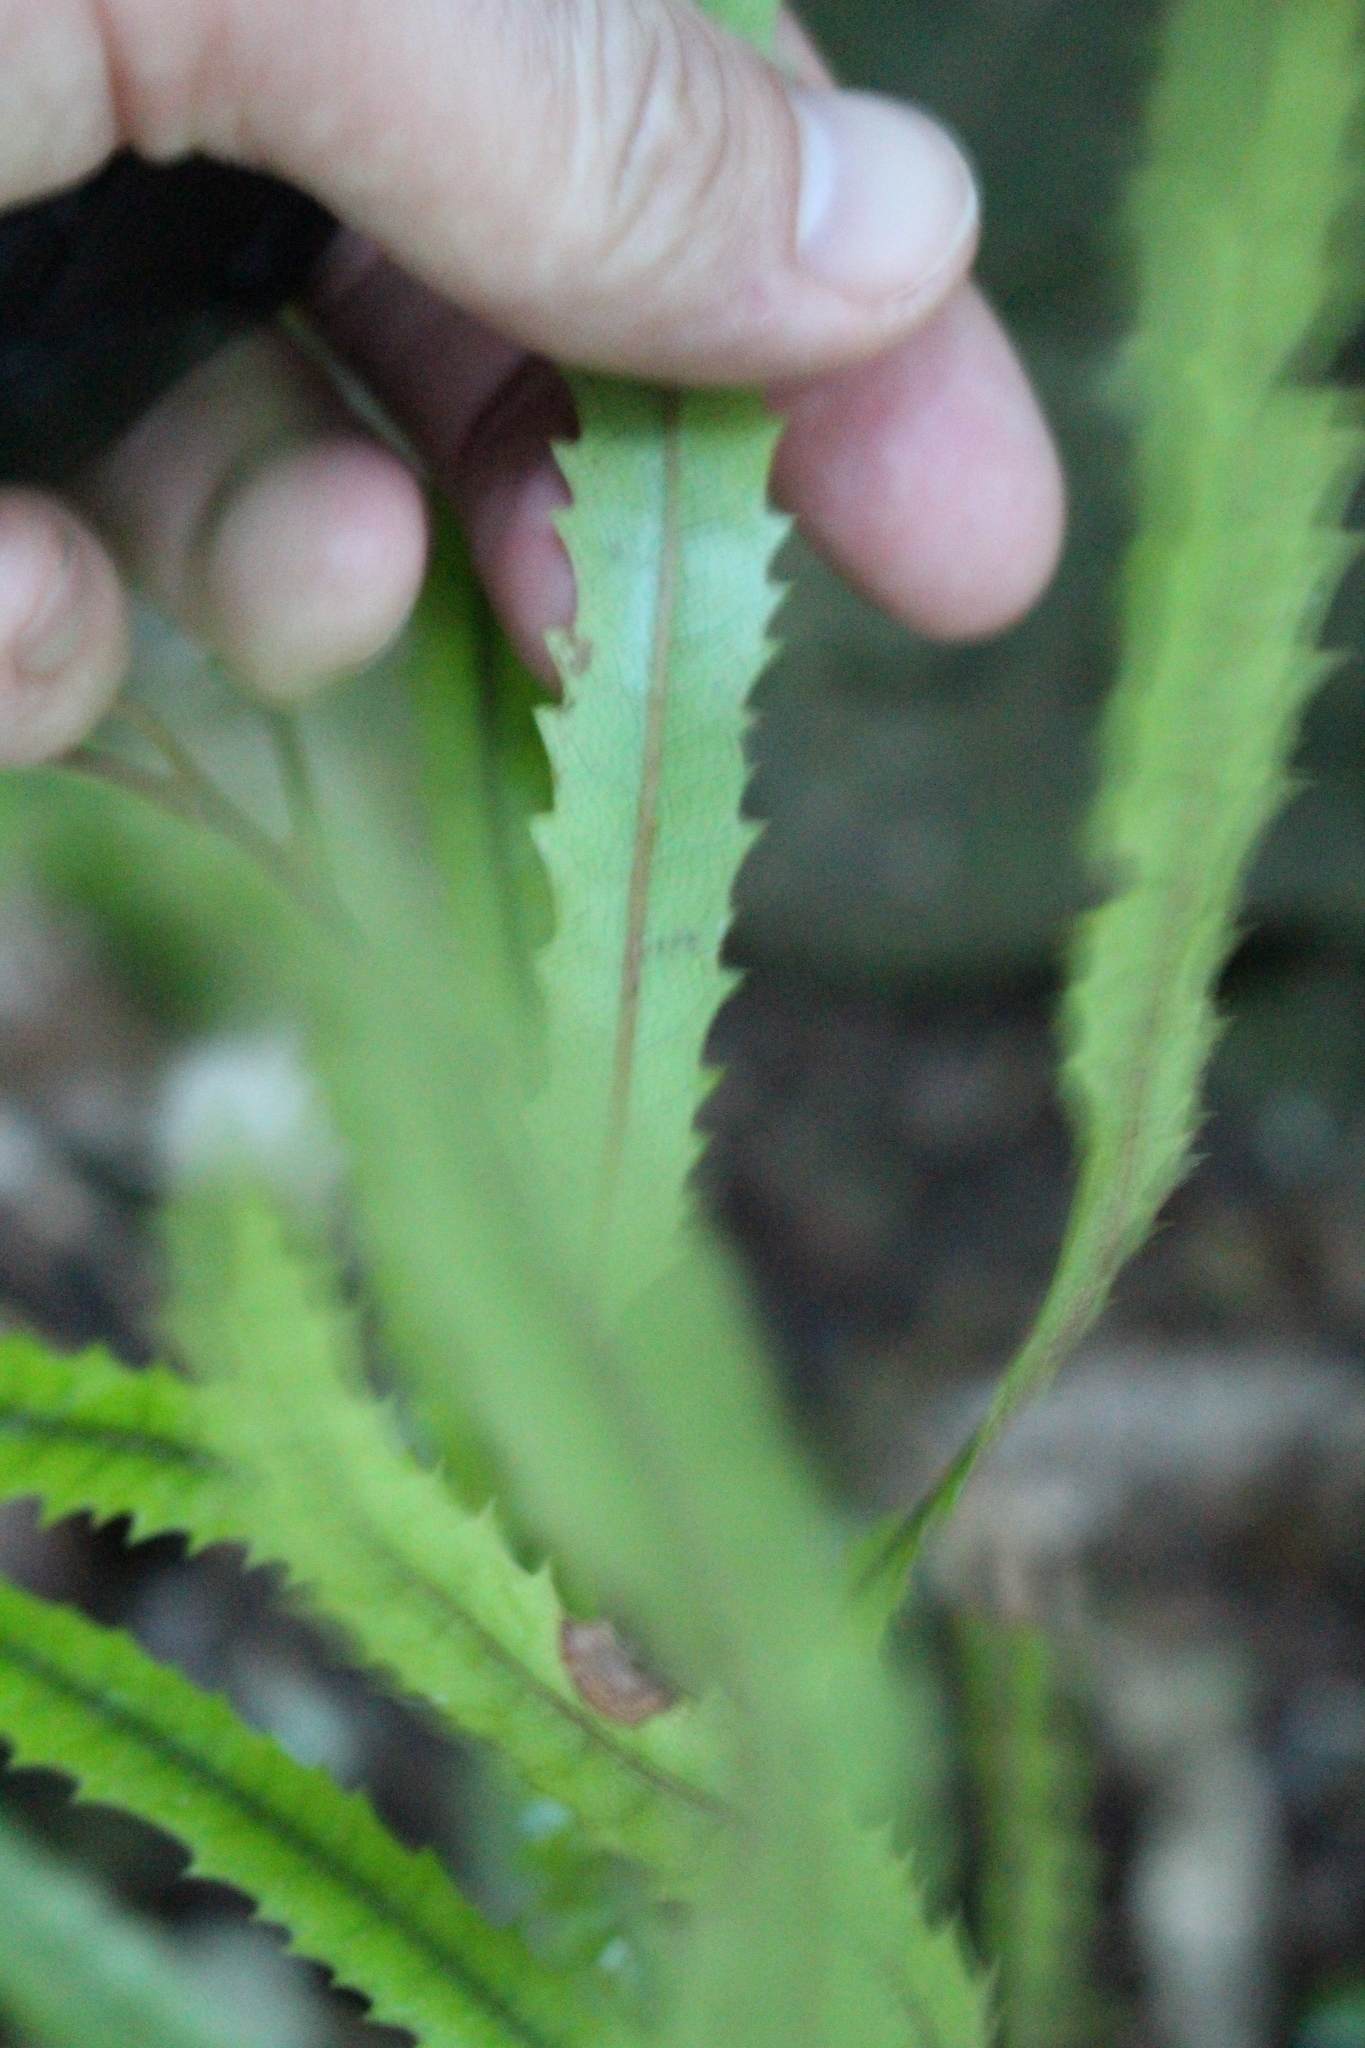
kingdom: Plantae
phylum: Tracheophyta
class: Magnoliopsida
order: Proteales
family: Proteaceae
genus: Knightia
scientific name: Knightia excelsa
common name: New zealand-honeysuckle
